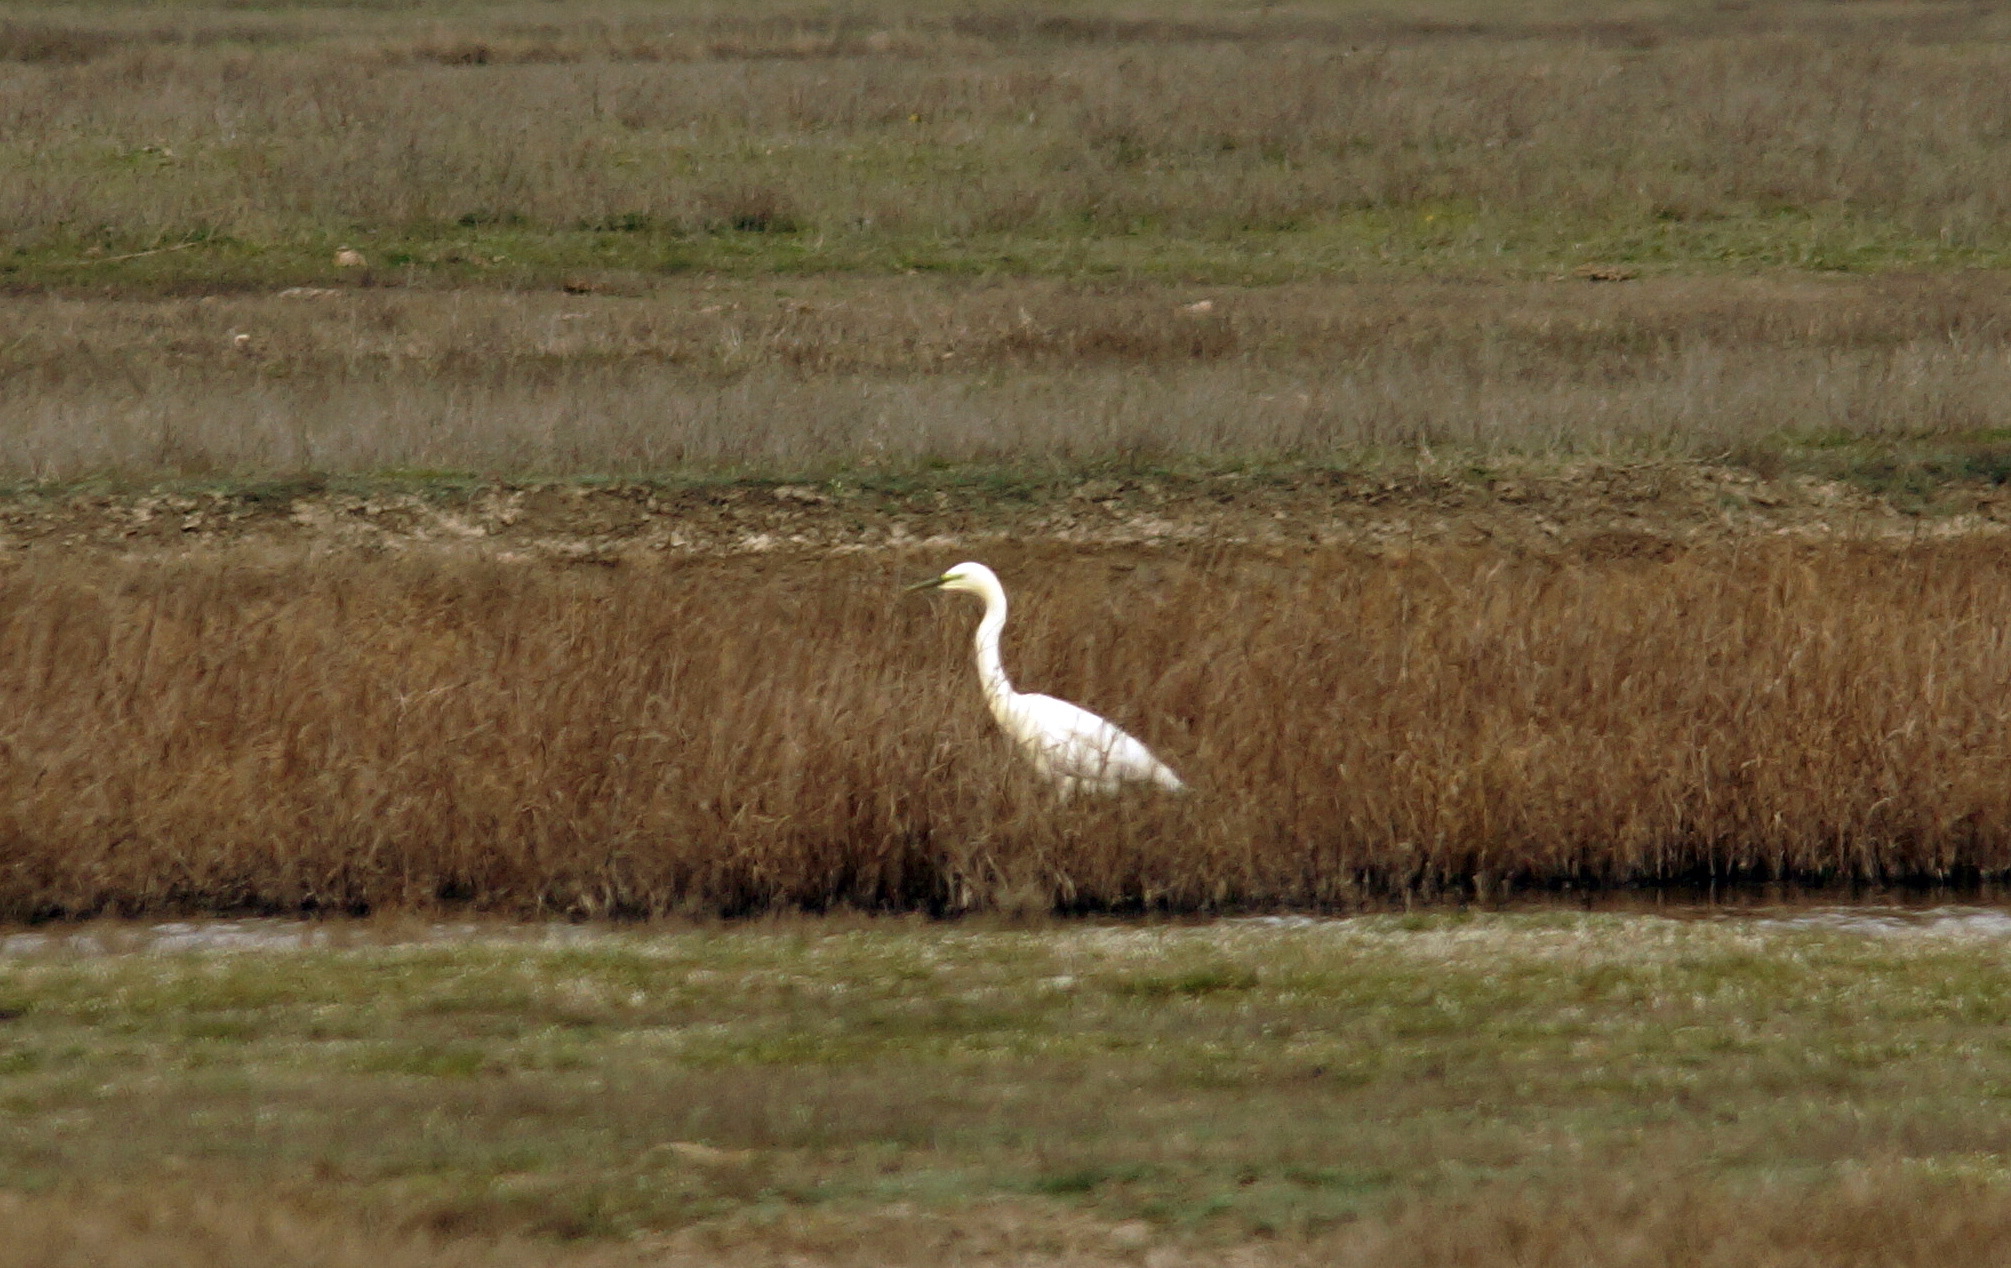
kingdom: Animalia
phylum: Chordata
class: Aves
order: Pelecaniformes
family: Ardeidae
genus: Ardea
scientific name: Ardea alba
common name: Great egret
